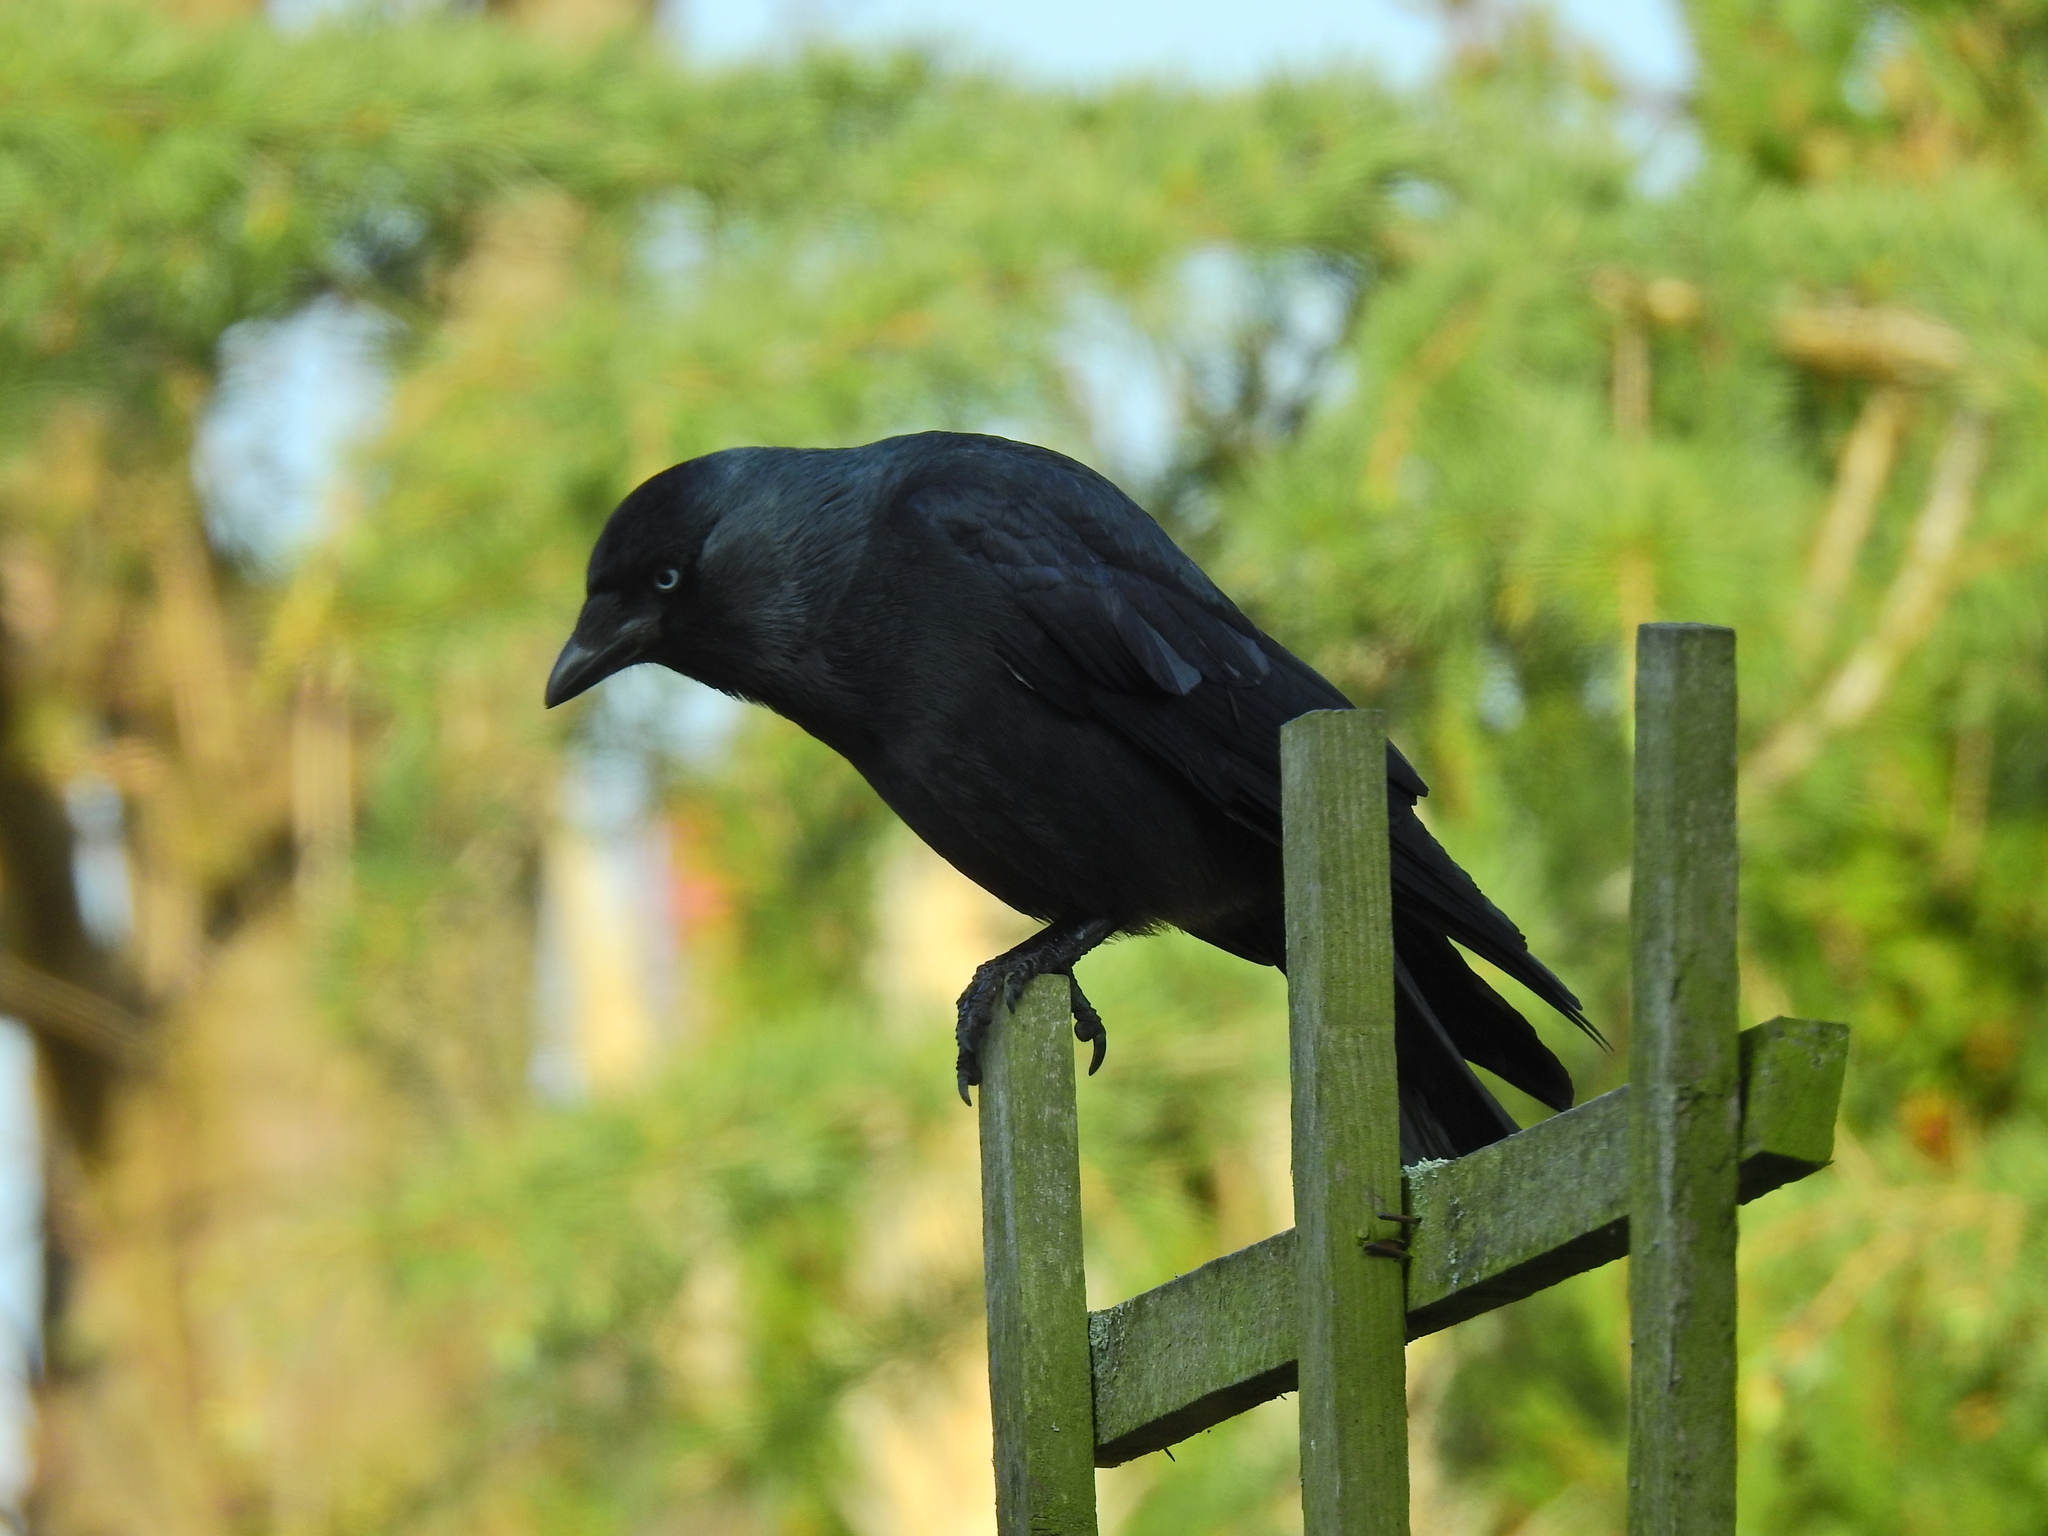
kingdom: Animalia
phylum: Chordata
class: Aves
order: Passeriformes
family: Corvidae
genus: Coloeus
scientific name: Coloeus monedula
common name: Western jackdaw
